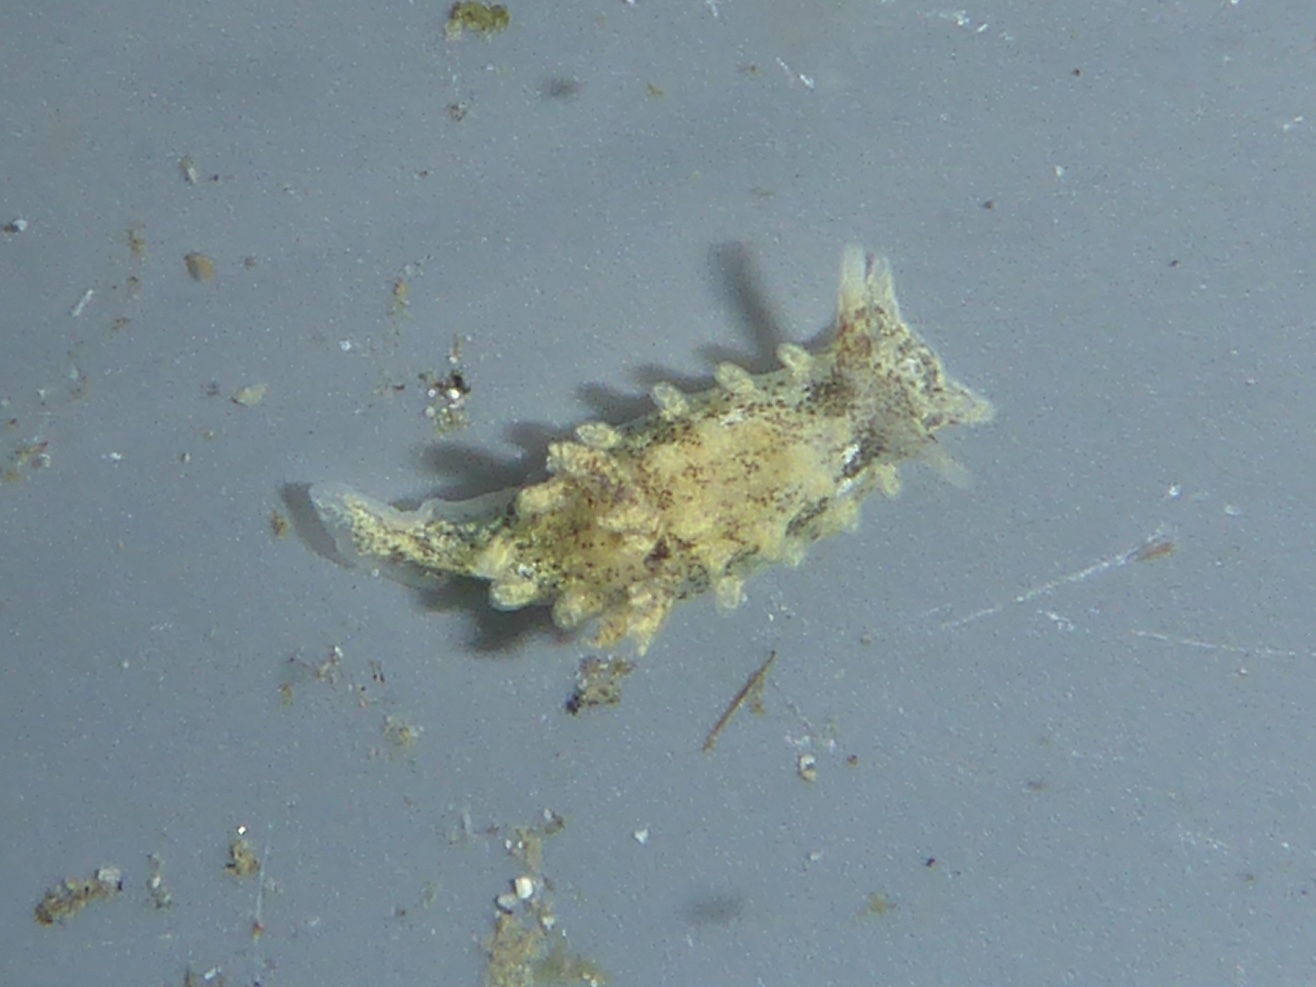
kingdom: Animalia
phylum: Mollusca
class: Gastropoda
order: Nudibranchia
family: Goniodorididae
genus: Okenia
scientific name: Okenia
